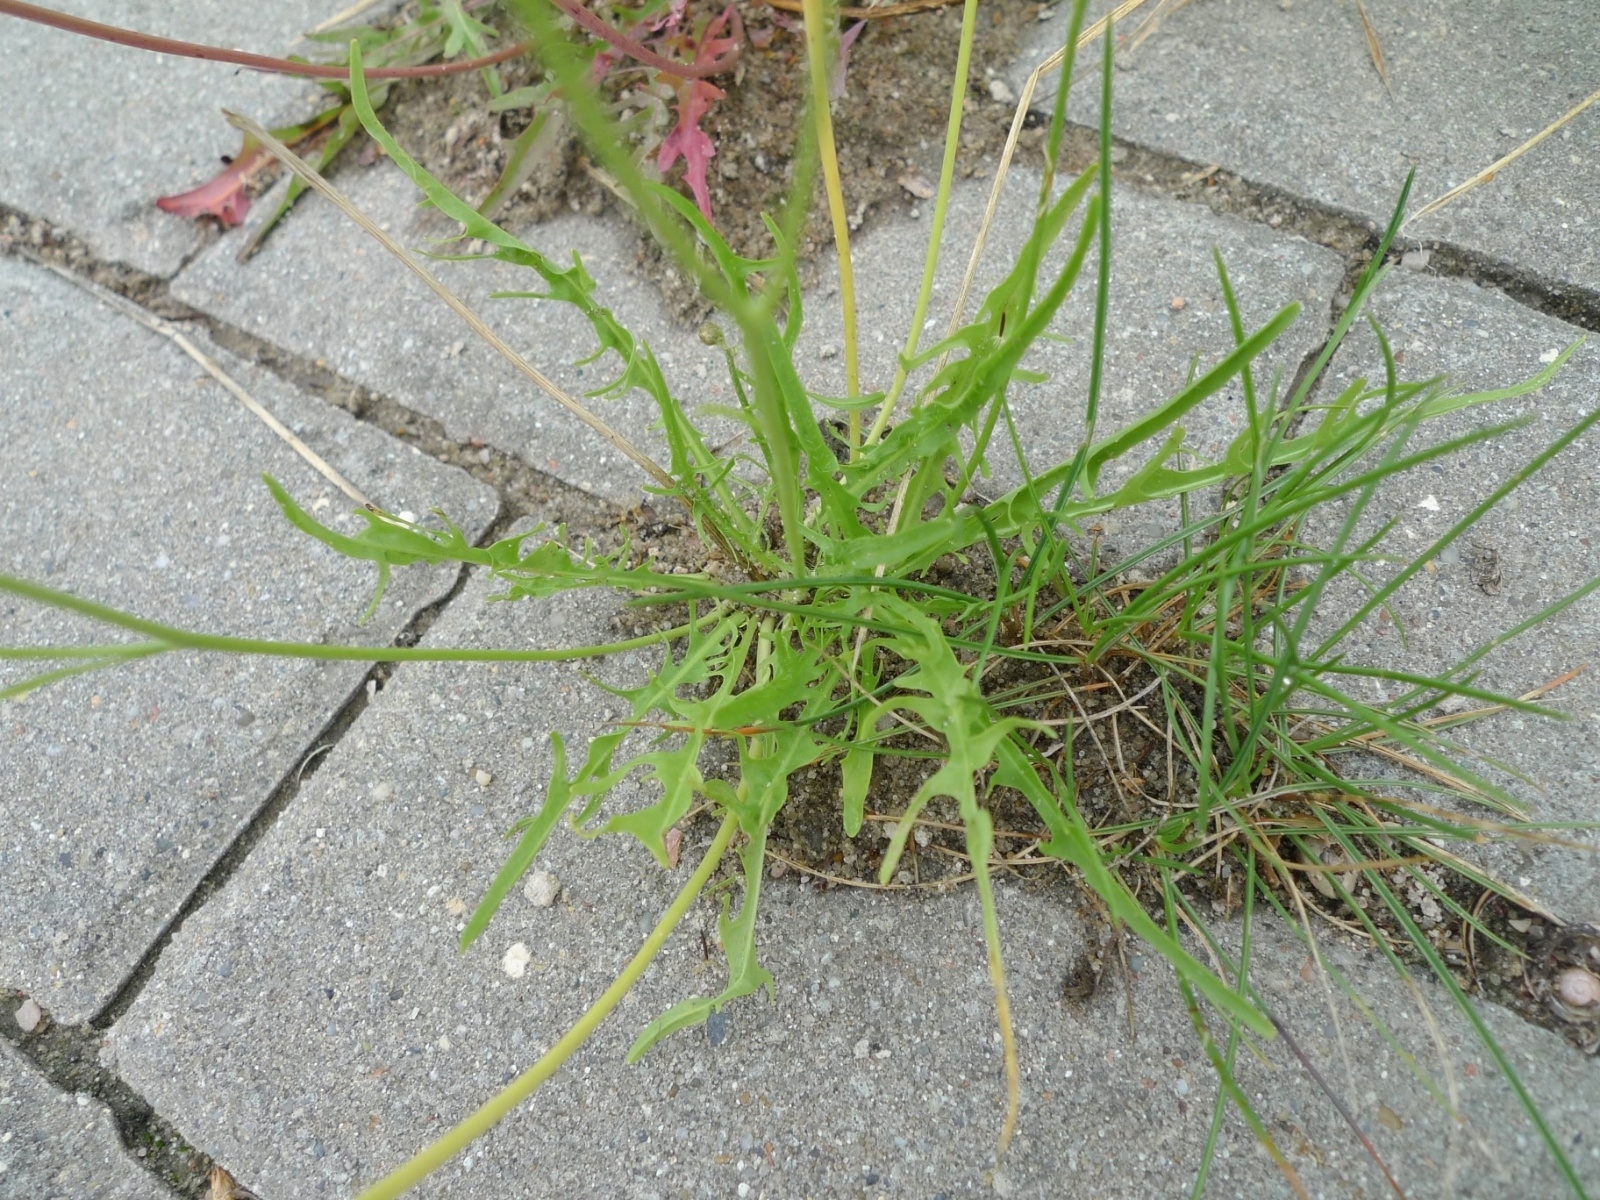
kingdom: Plantae
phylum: Tracheophyta
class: Magnoliopsida
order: Asterales
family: Asteraceae
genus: Scorzoneroides
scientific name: Scorzoneroides autumnalis
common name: Autumn hawkbit
